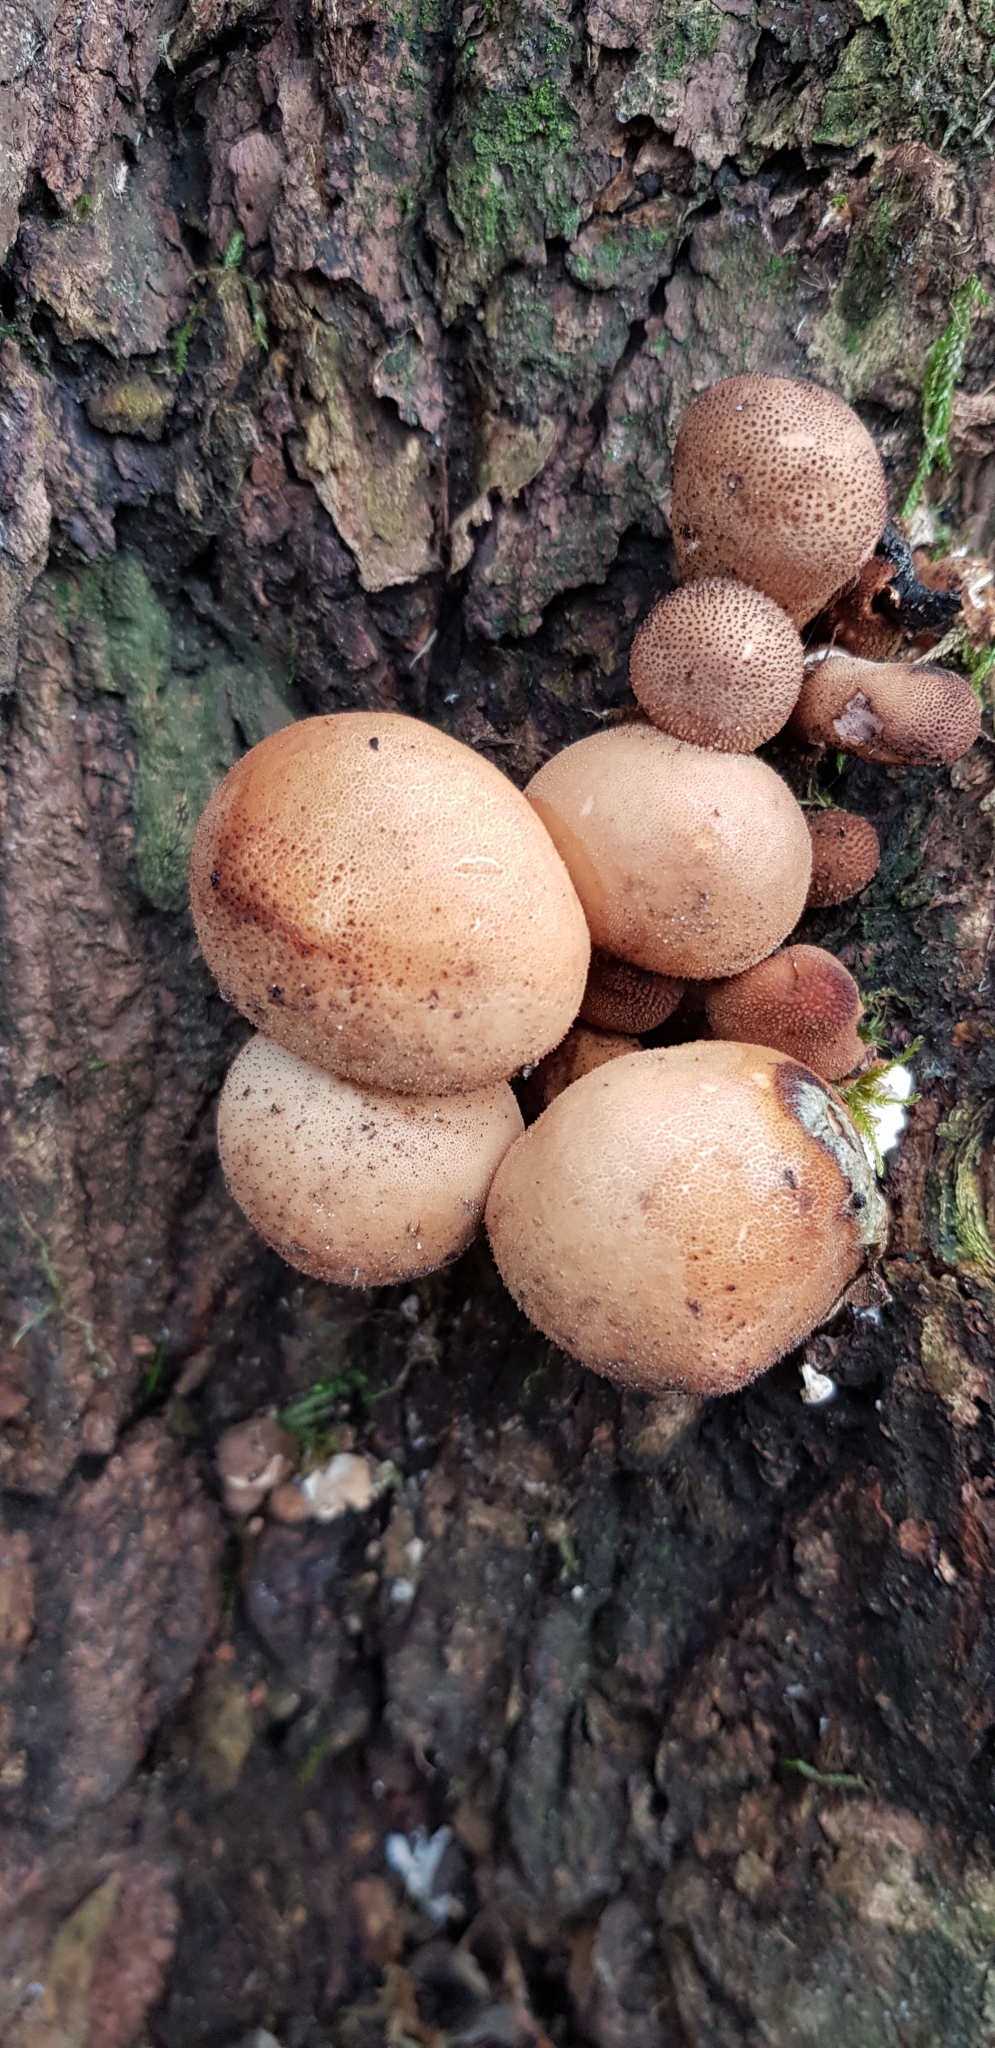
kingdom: Fungi
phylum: Basidiomycota
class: Agaricomycetes
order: Agaricales
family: Lycoperdaceae
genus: Lycoperdon
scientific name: Lycoperdon perlatum
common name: Common puffball
